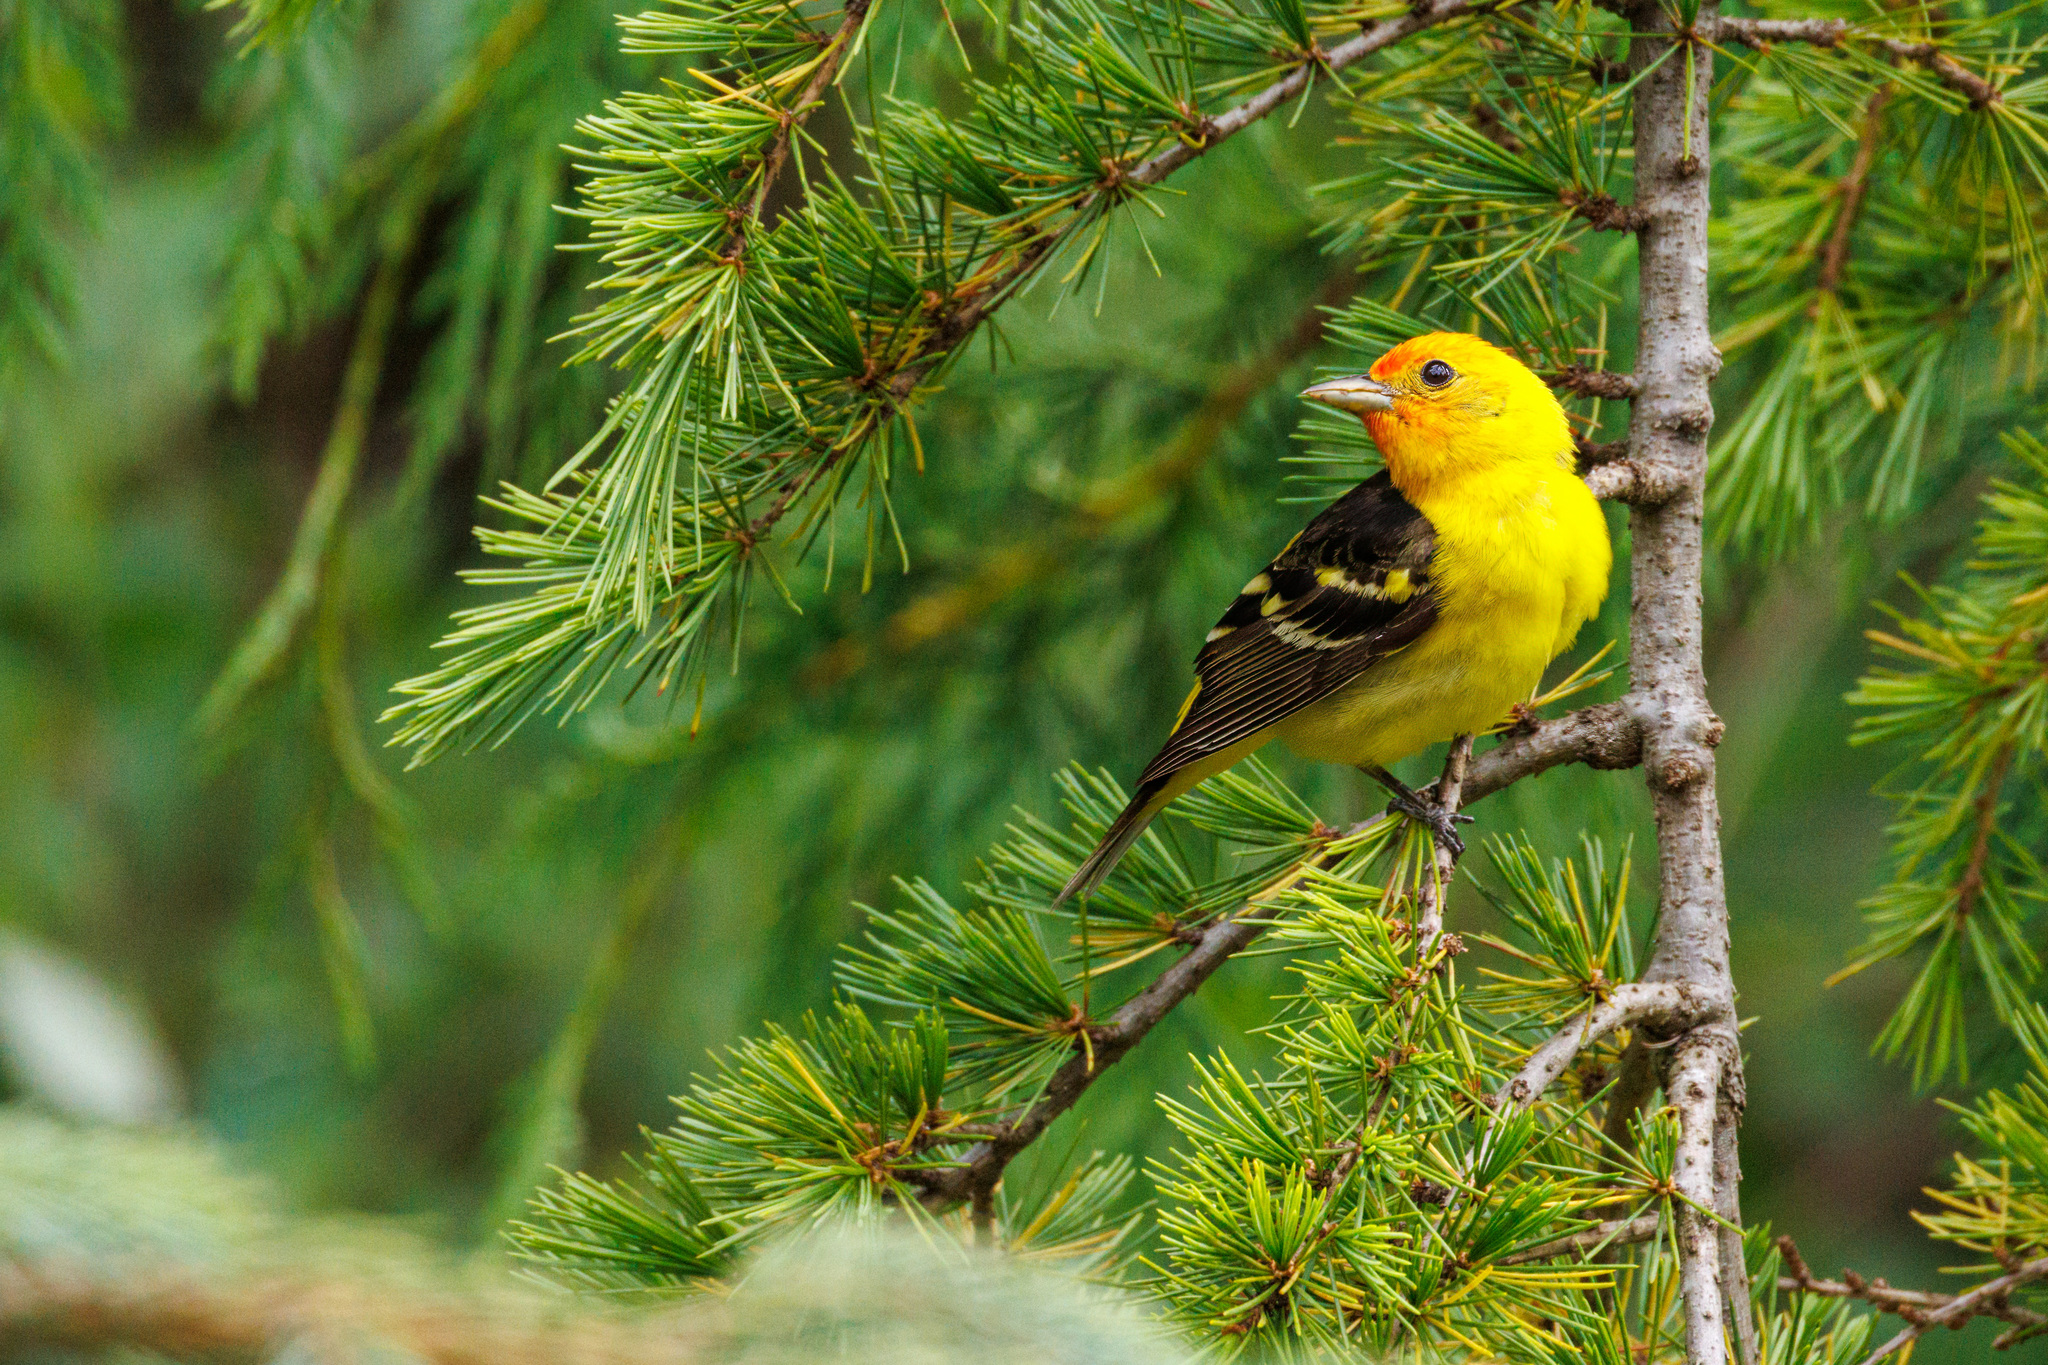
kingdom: Animalia
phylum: Chordata
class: Aves
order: Passeriformes
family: Cardinalidae
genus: Piranga
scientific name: Piranga ludoviciana
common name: Western tanager
